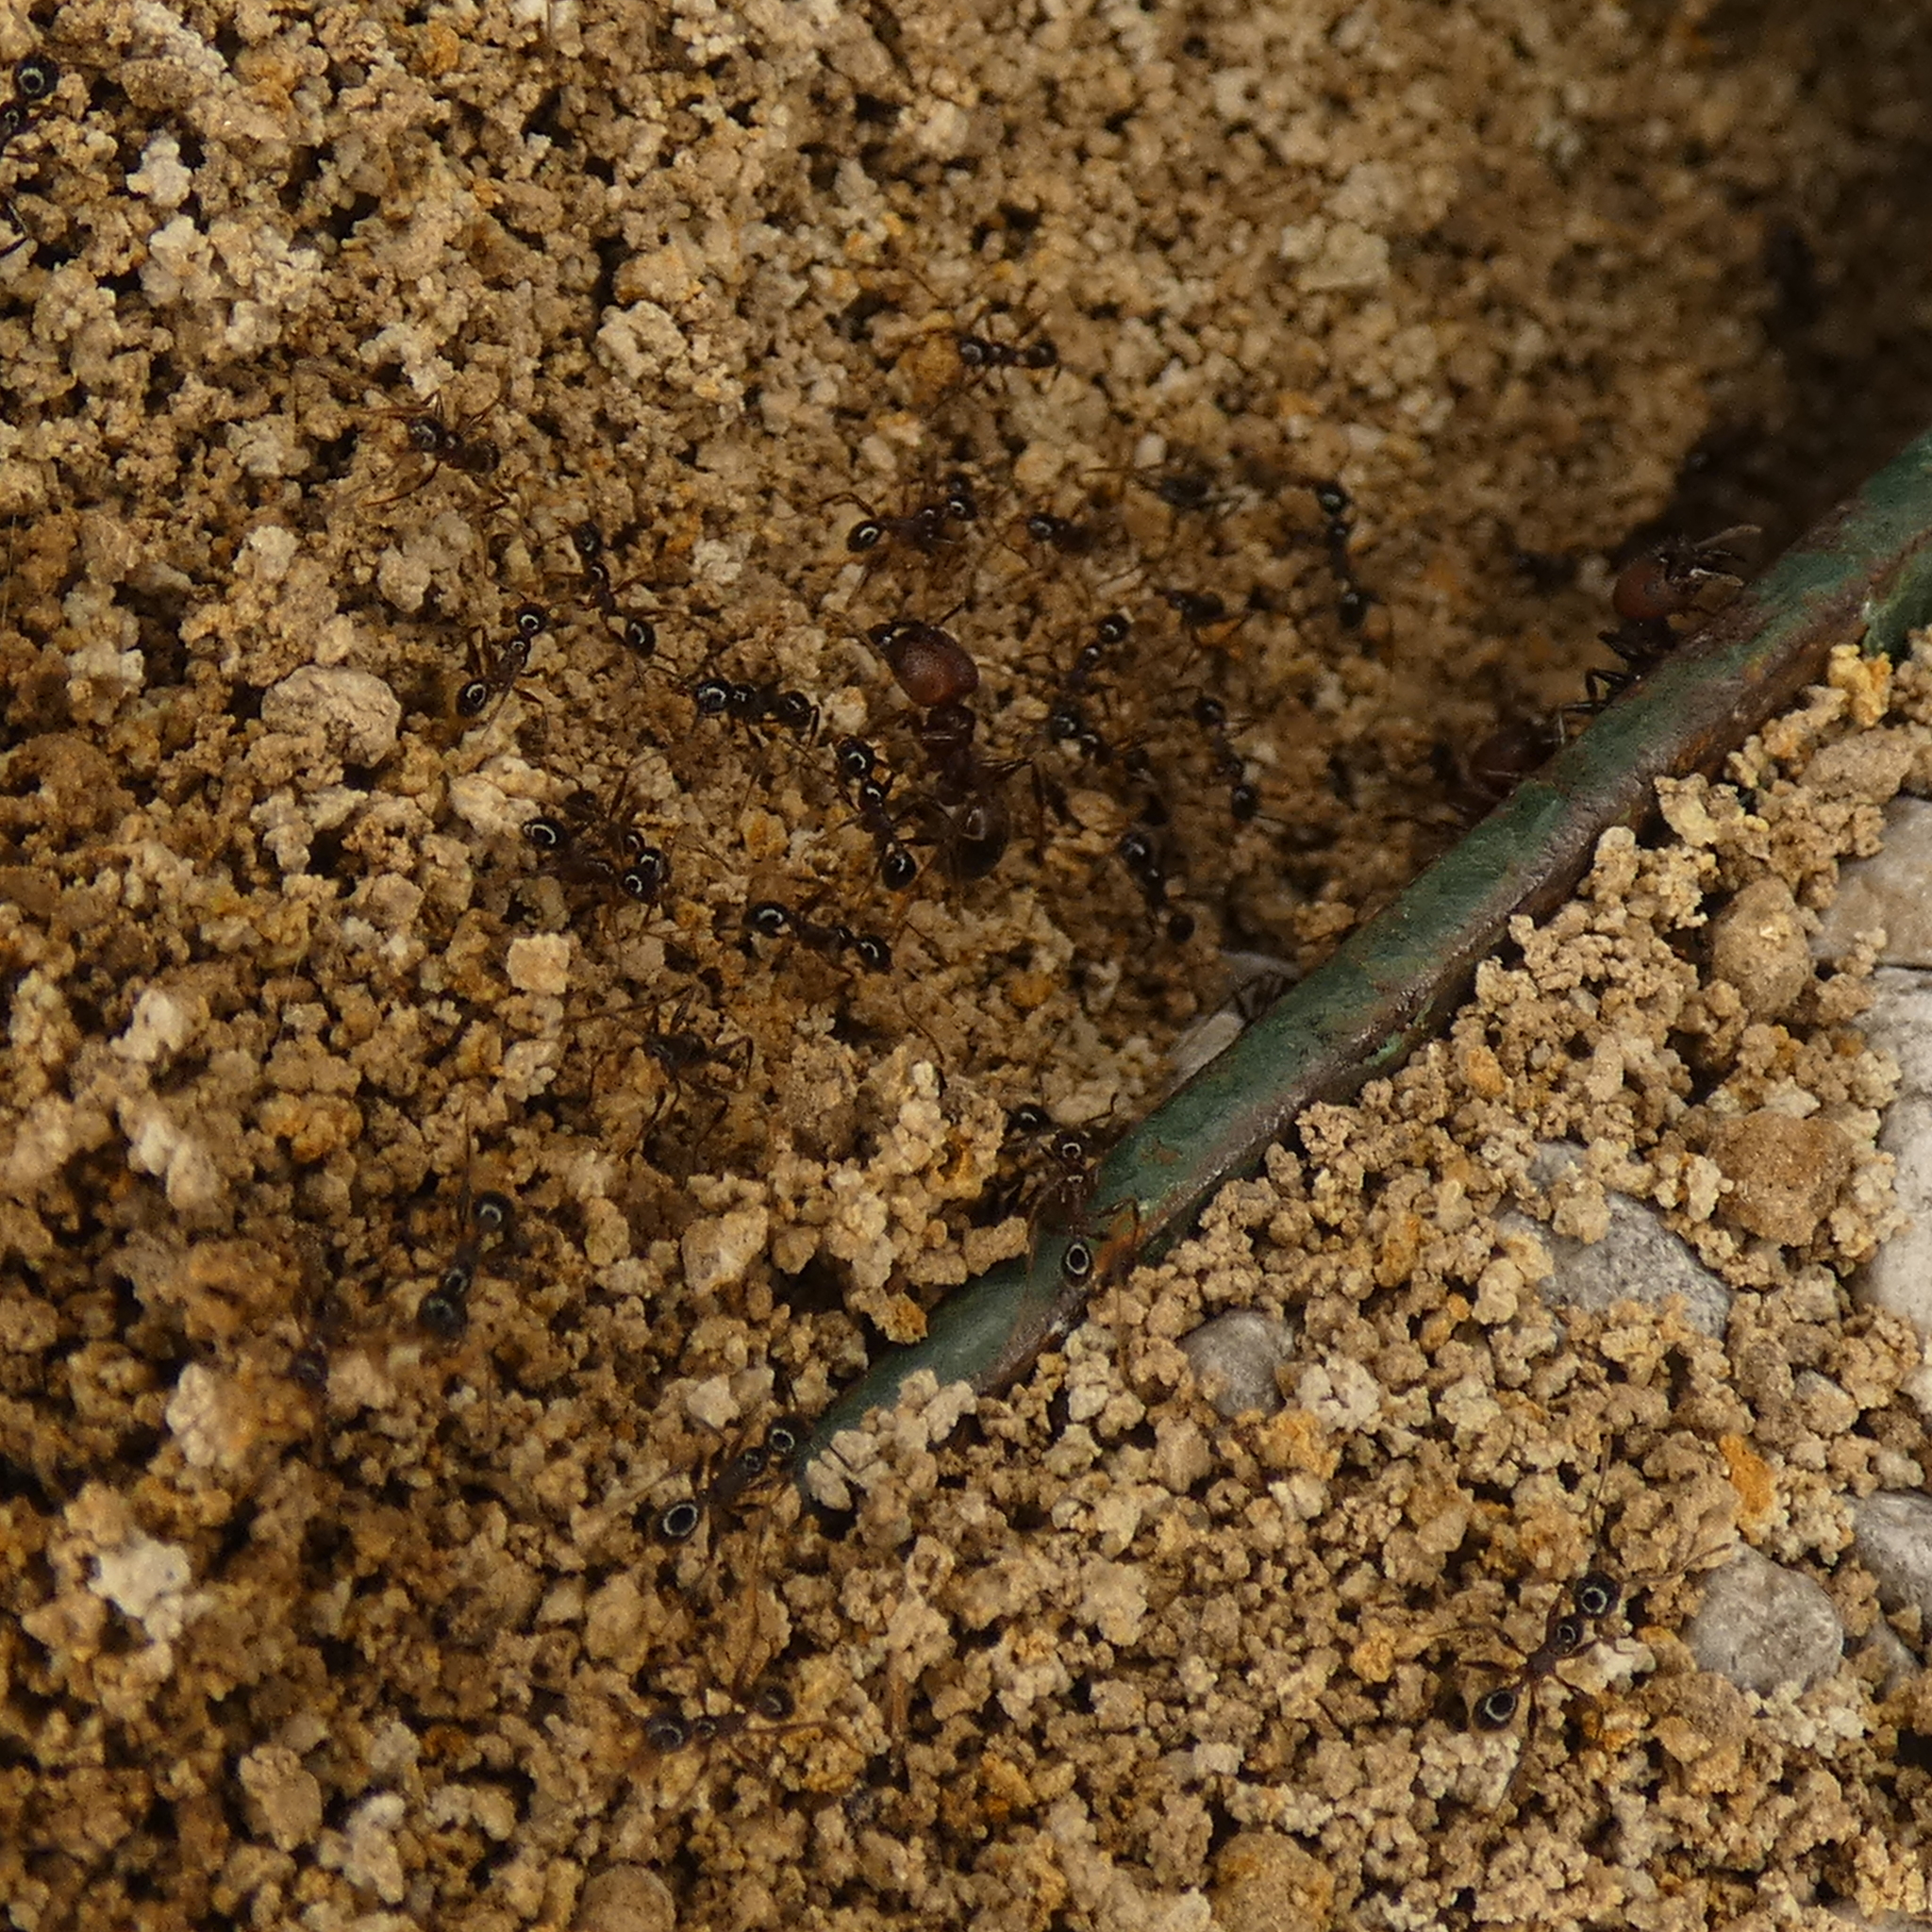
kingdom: Animalia
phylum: Arthropoda
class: Insecta
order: Hymenoptera
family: Formicidae
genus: Pheidole
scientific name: Pheidole obscurithorax
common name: Obscure big-headed ant
